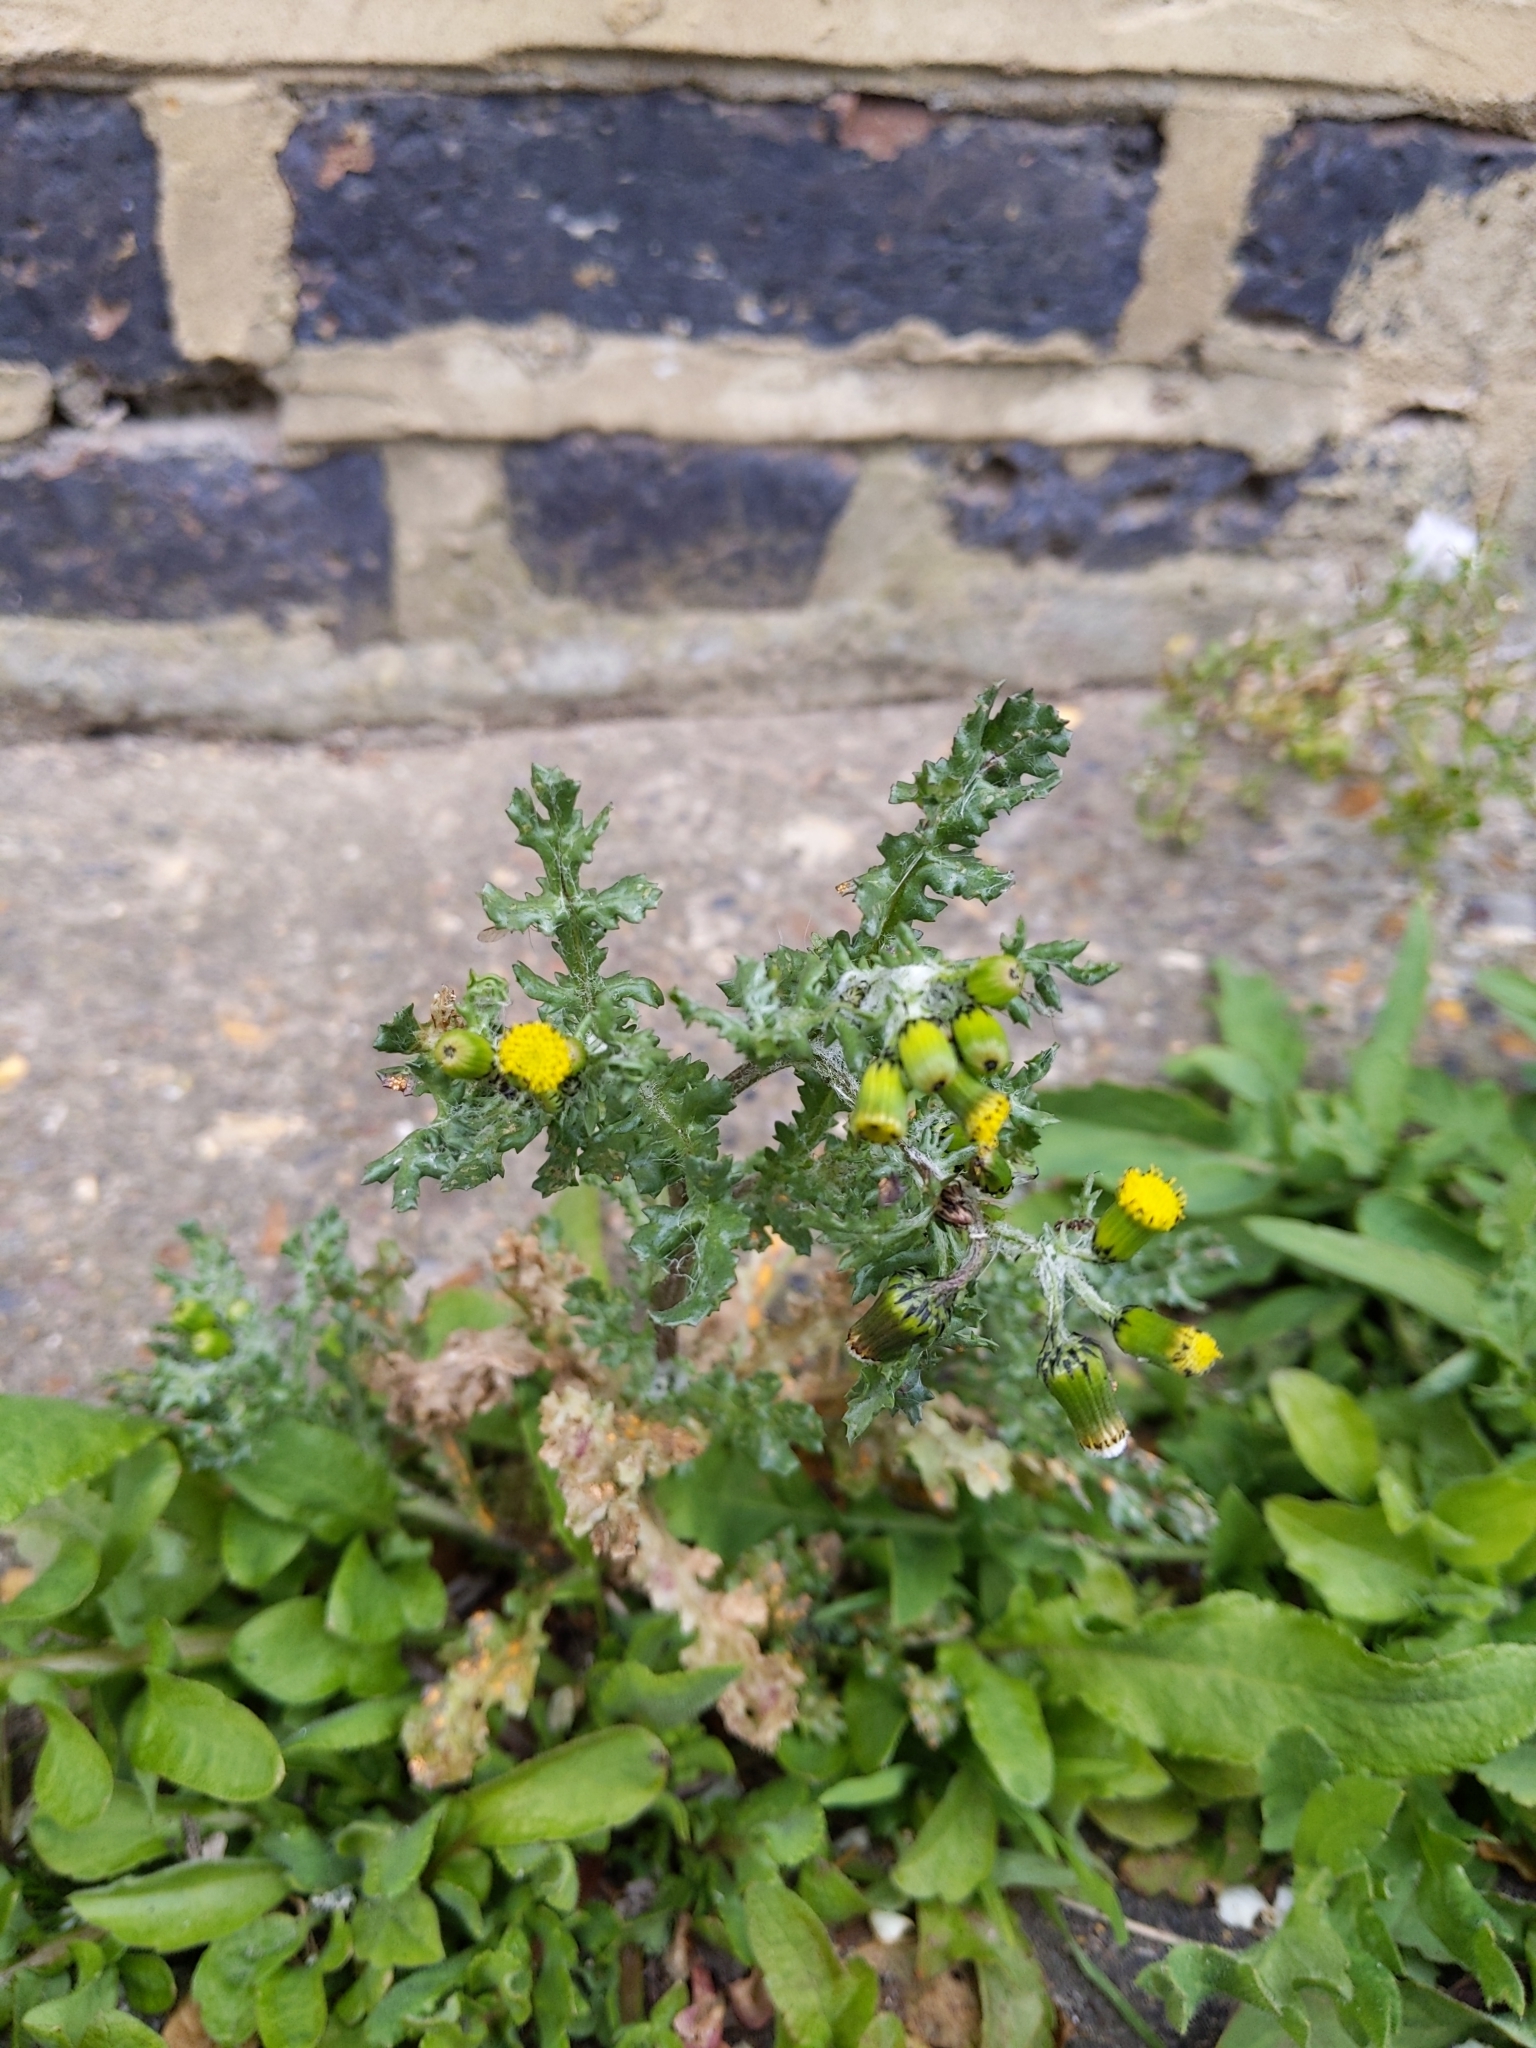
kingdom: Plantae
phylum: Tracheophyta
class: Magnoliopsida
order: Asterales
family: Asteraceae
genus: Senecio
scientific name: Senecio vulgaris
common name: Old-man-in-the-spring
